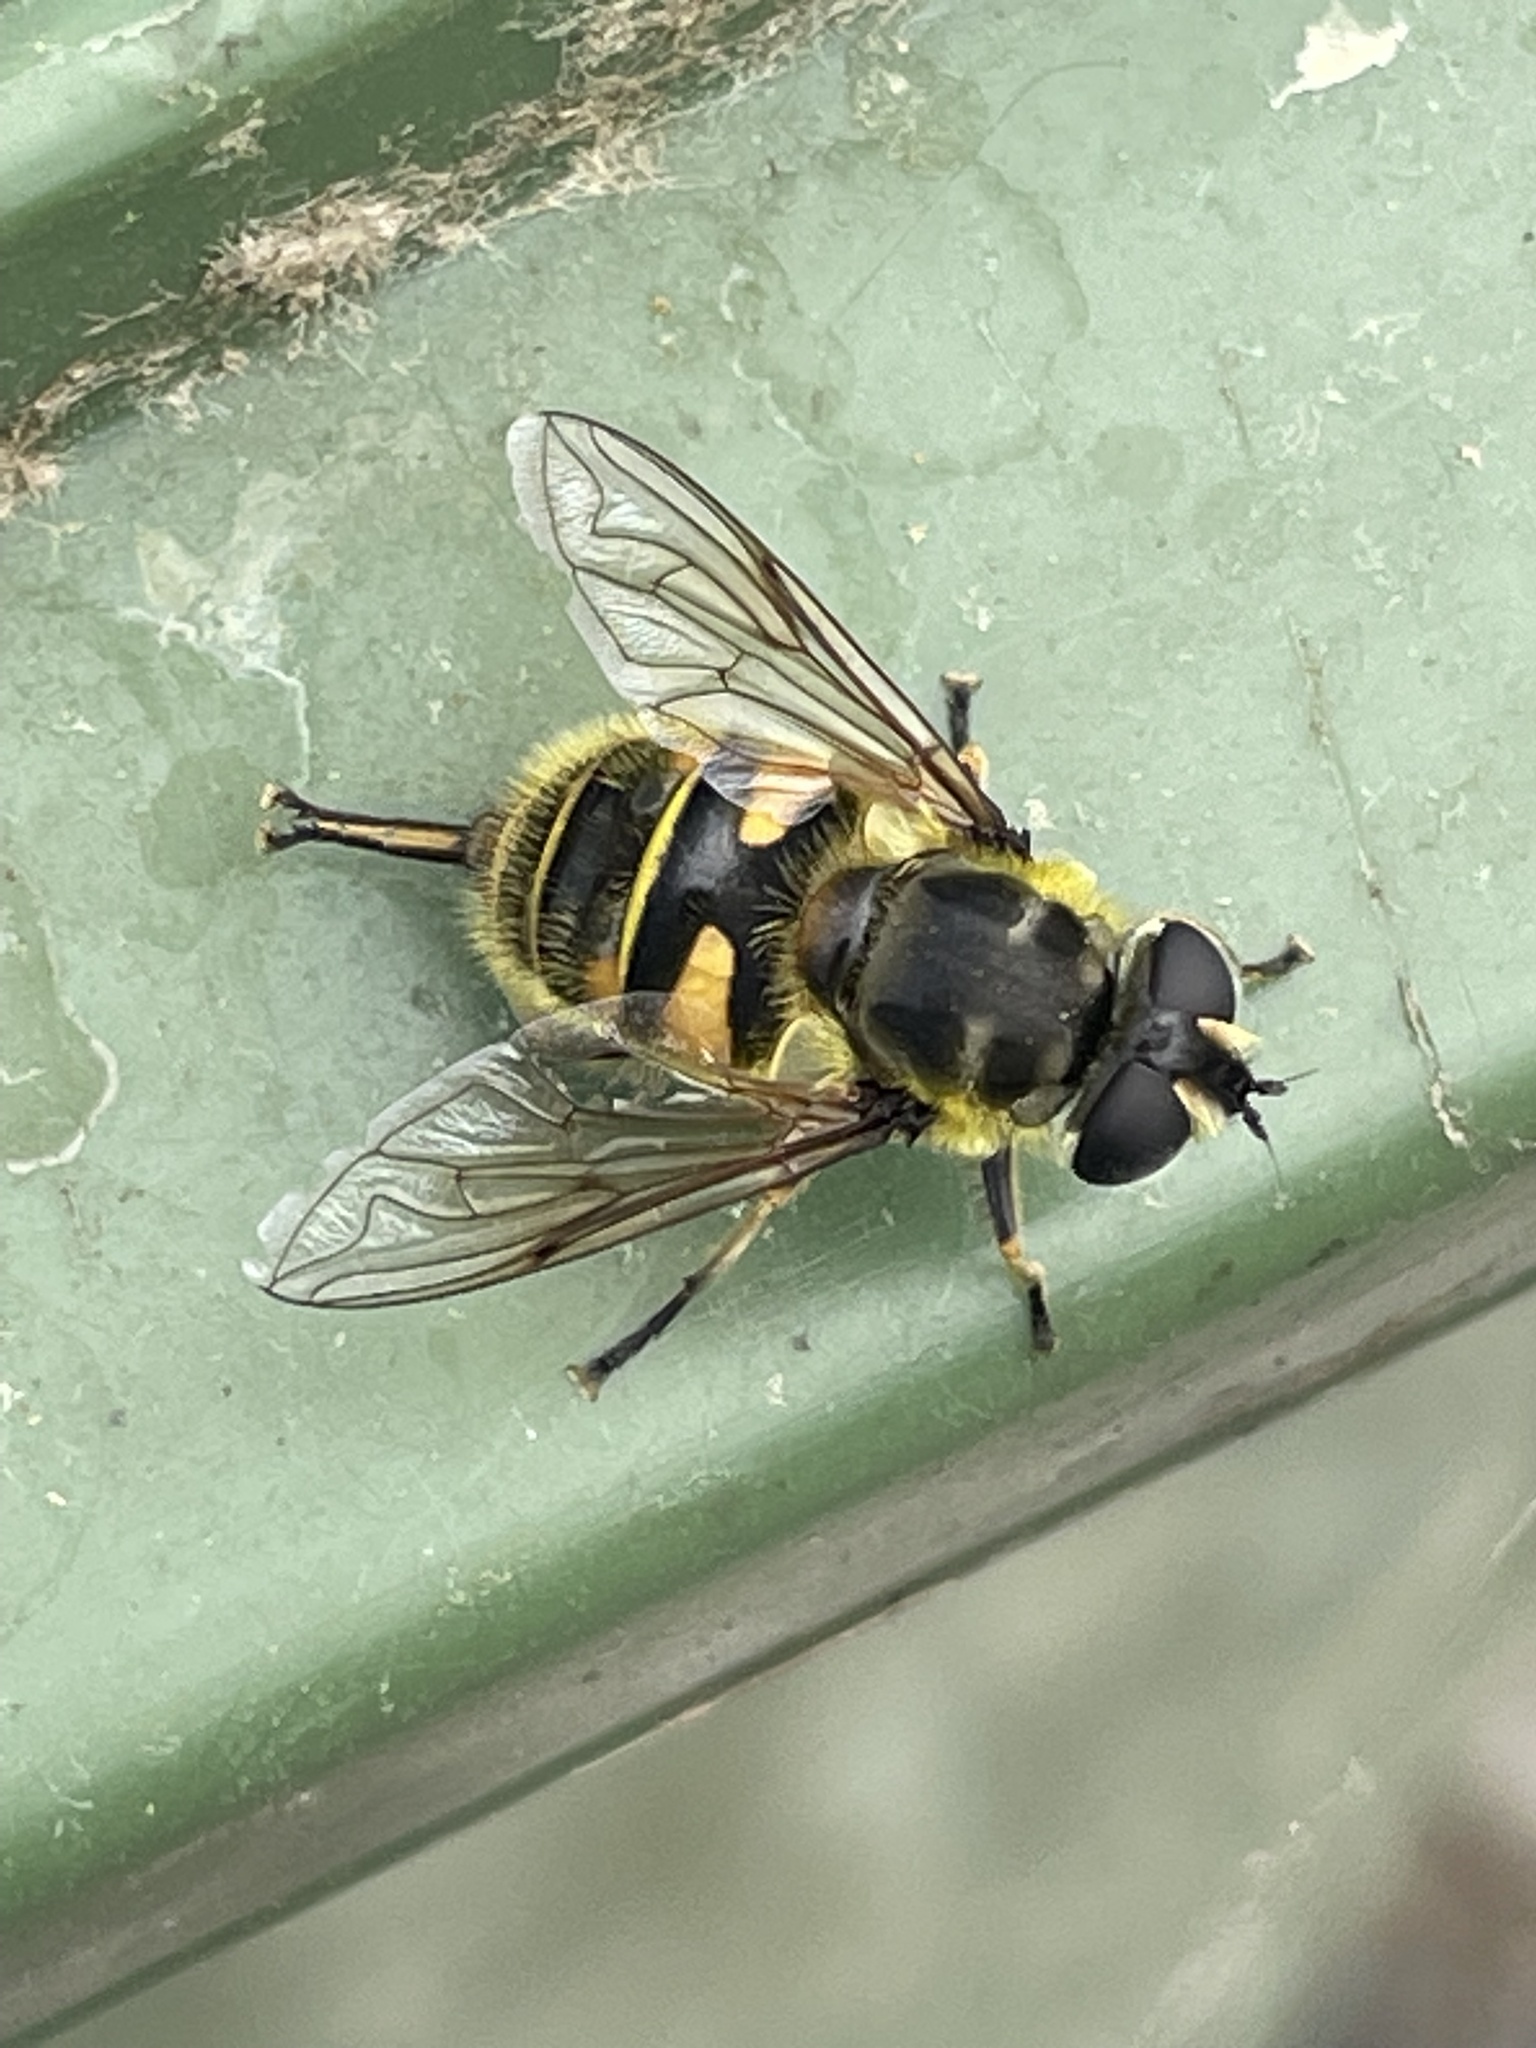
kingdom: Animalia
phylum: Arthropoda
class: Insecta
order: Diptera
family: Syrphidae
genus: Myathropa
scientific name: Myathropa florea
